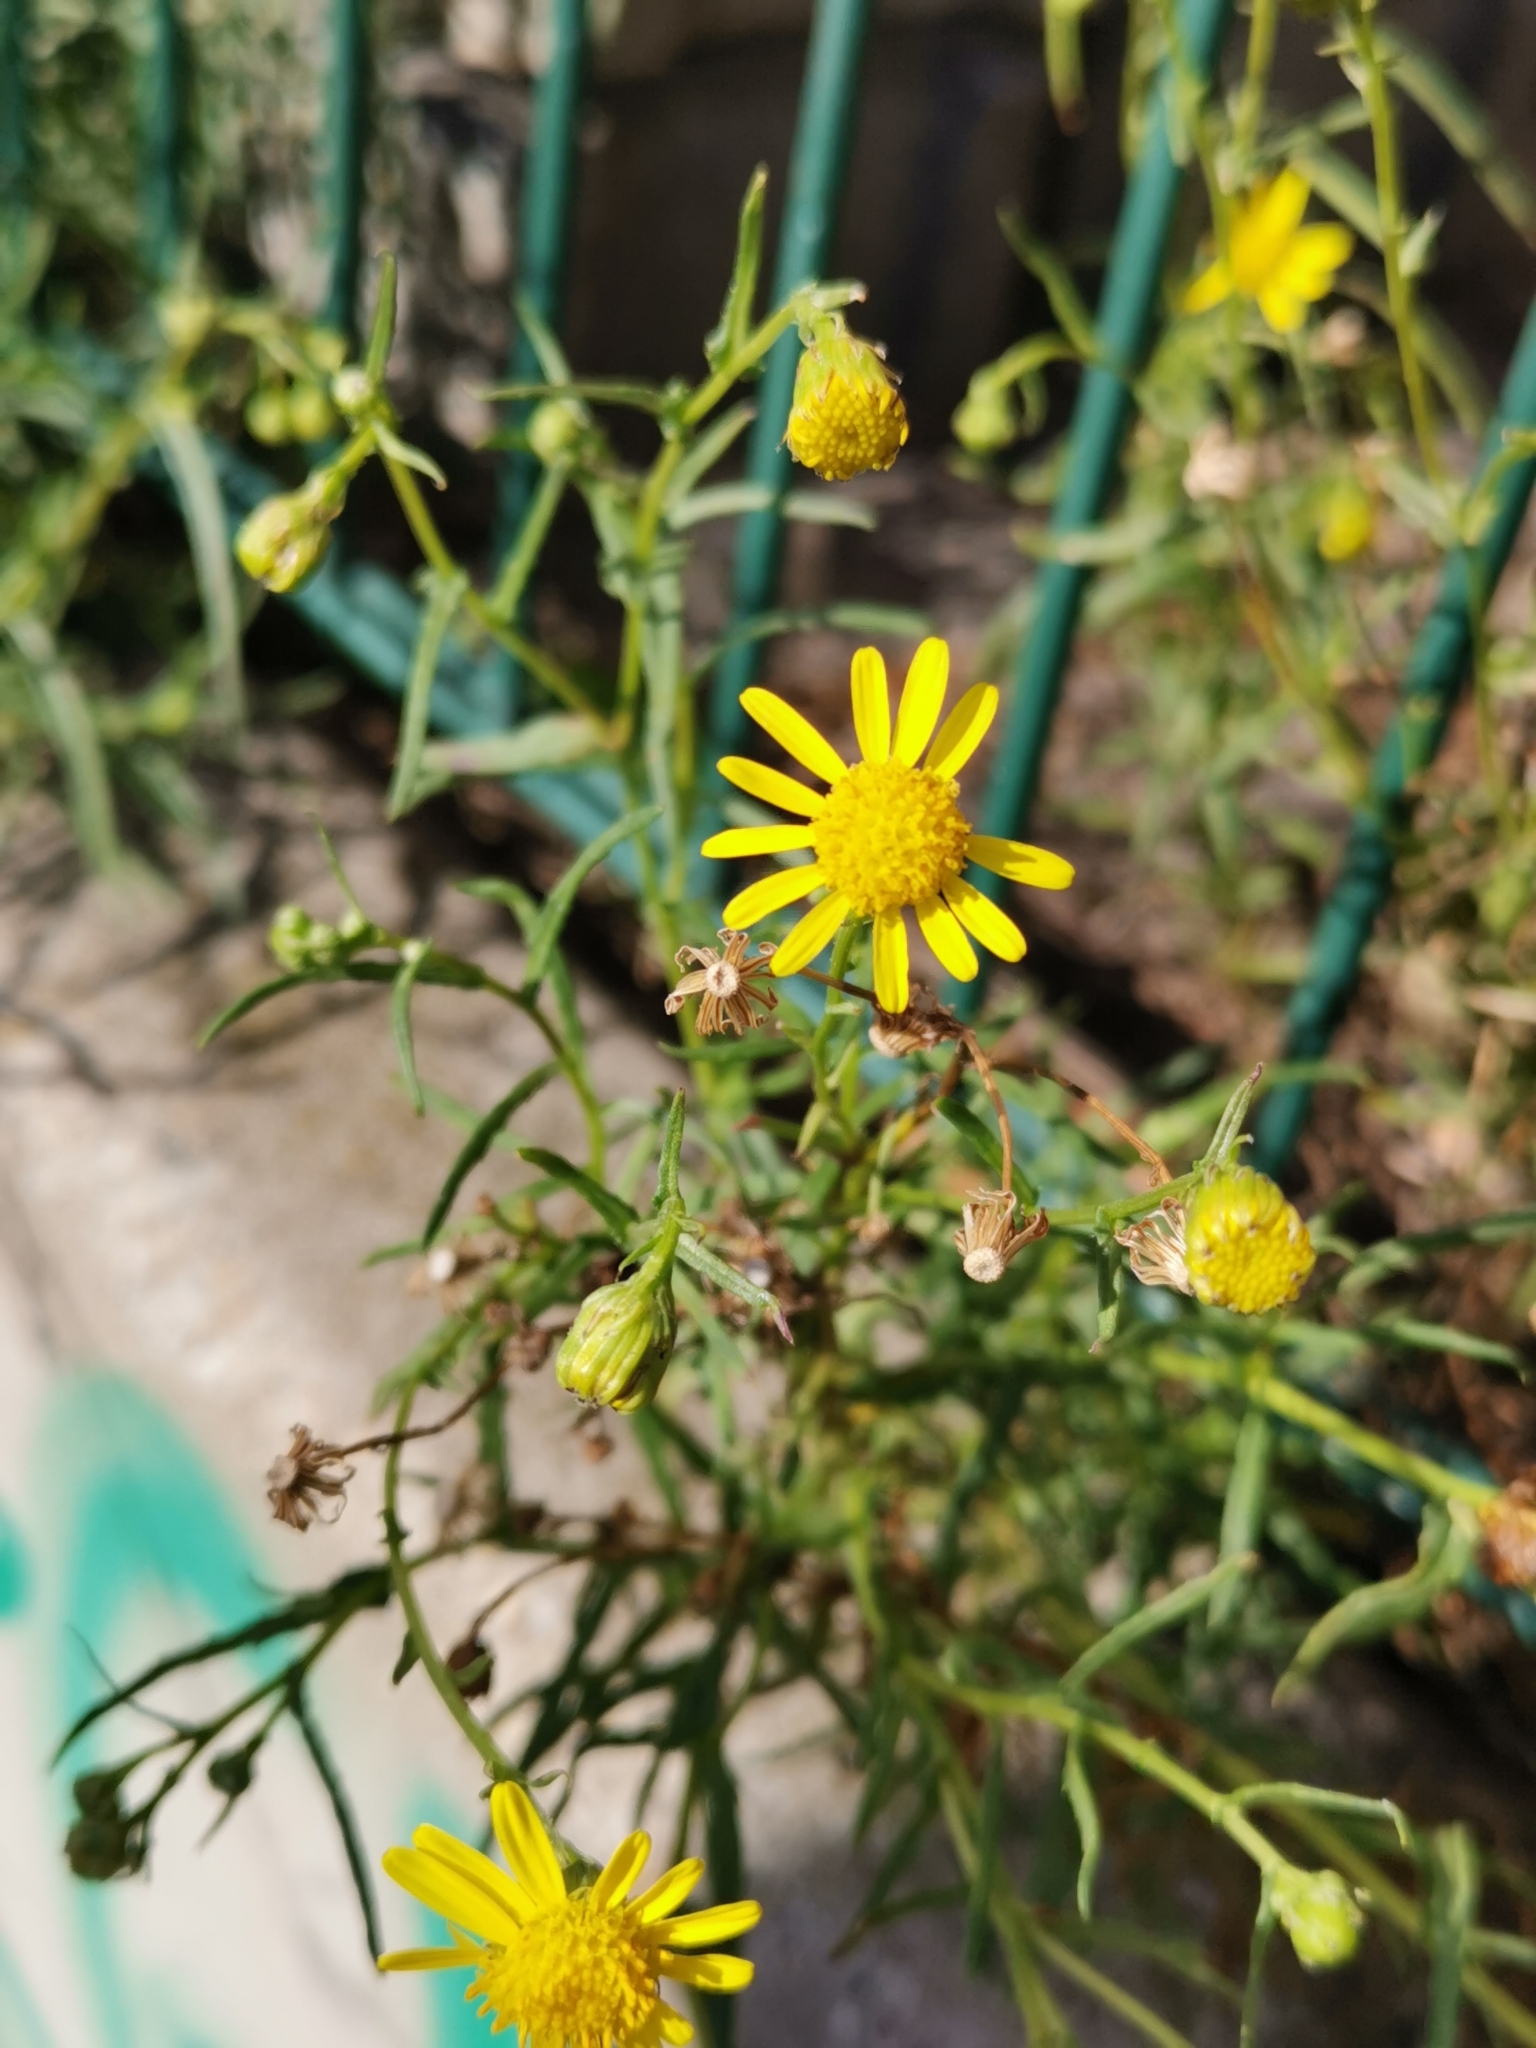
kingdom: Plantae
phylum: Tracheophyta
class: Magnoliopsida
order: Asterales
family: Asteraceae
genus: Senecio
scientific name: Senecio inaequidens
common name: Narrow-leaved ragwort
